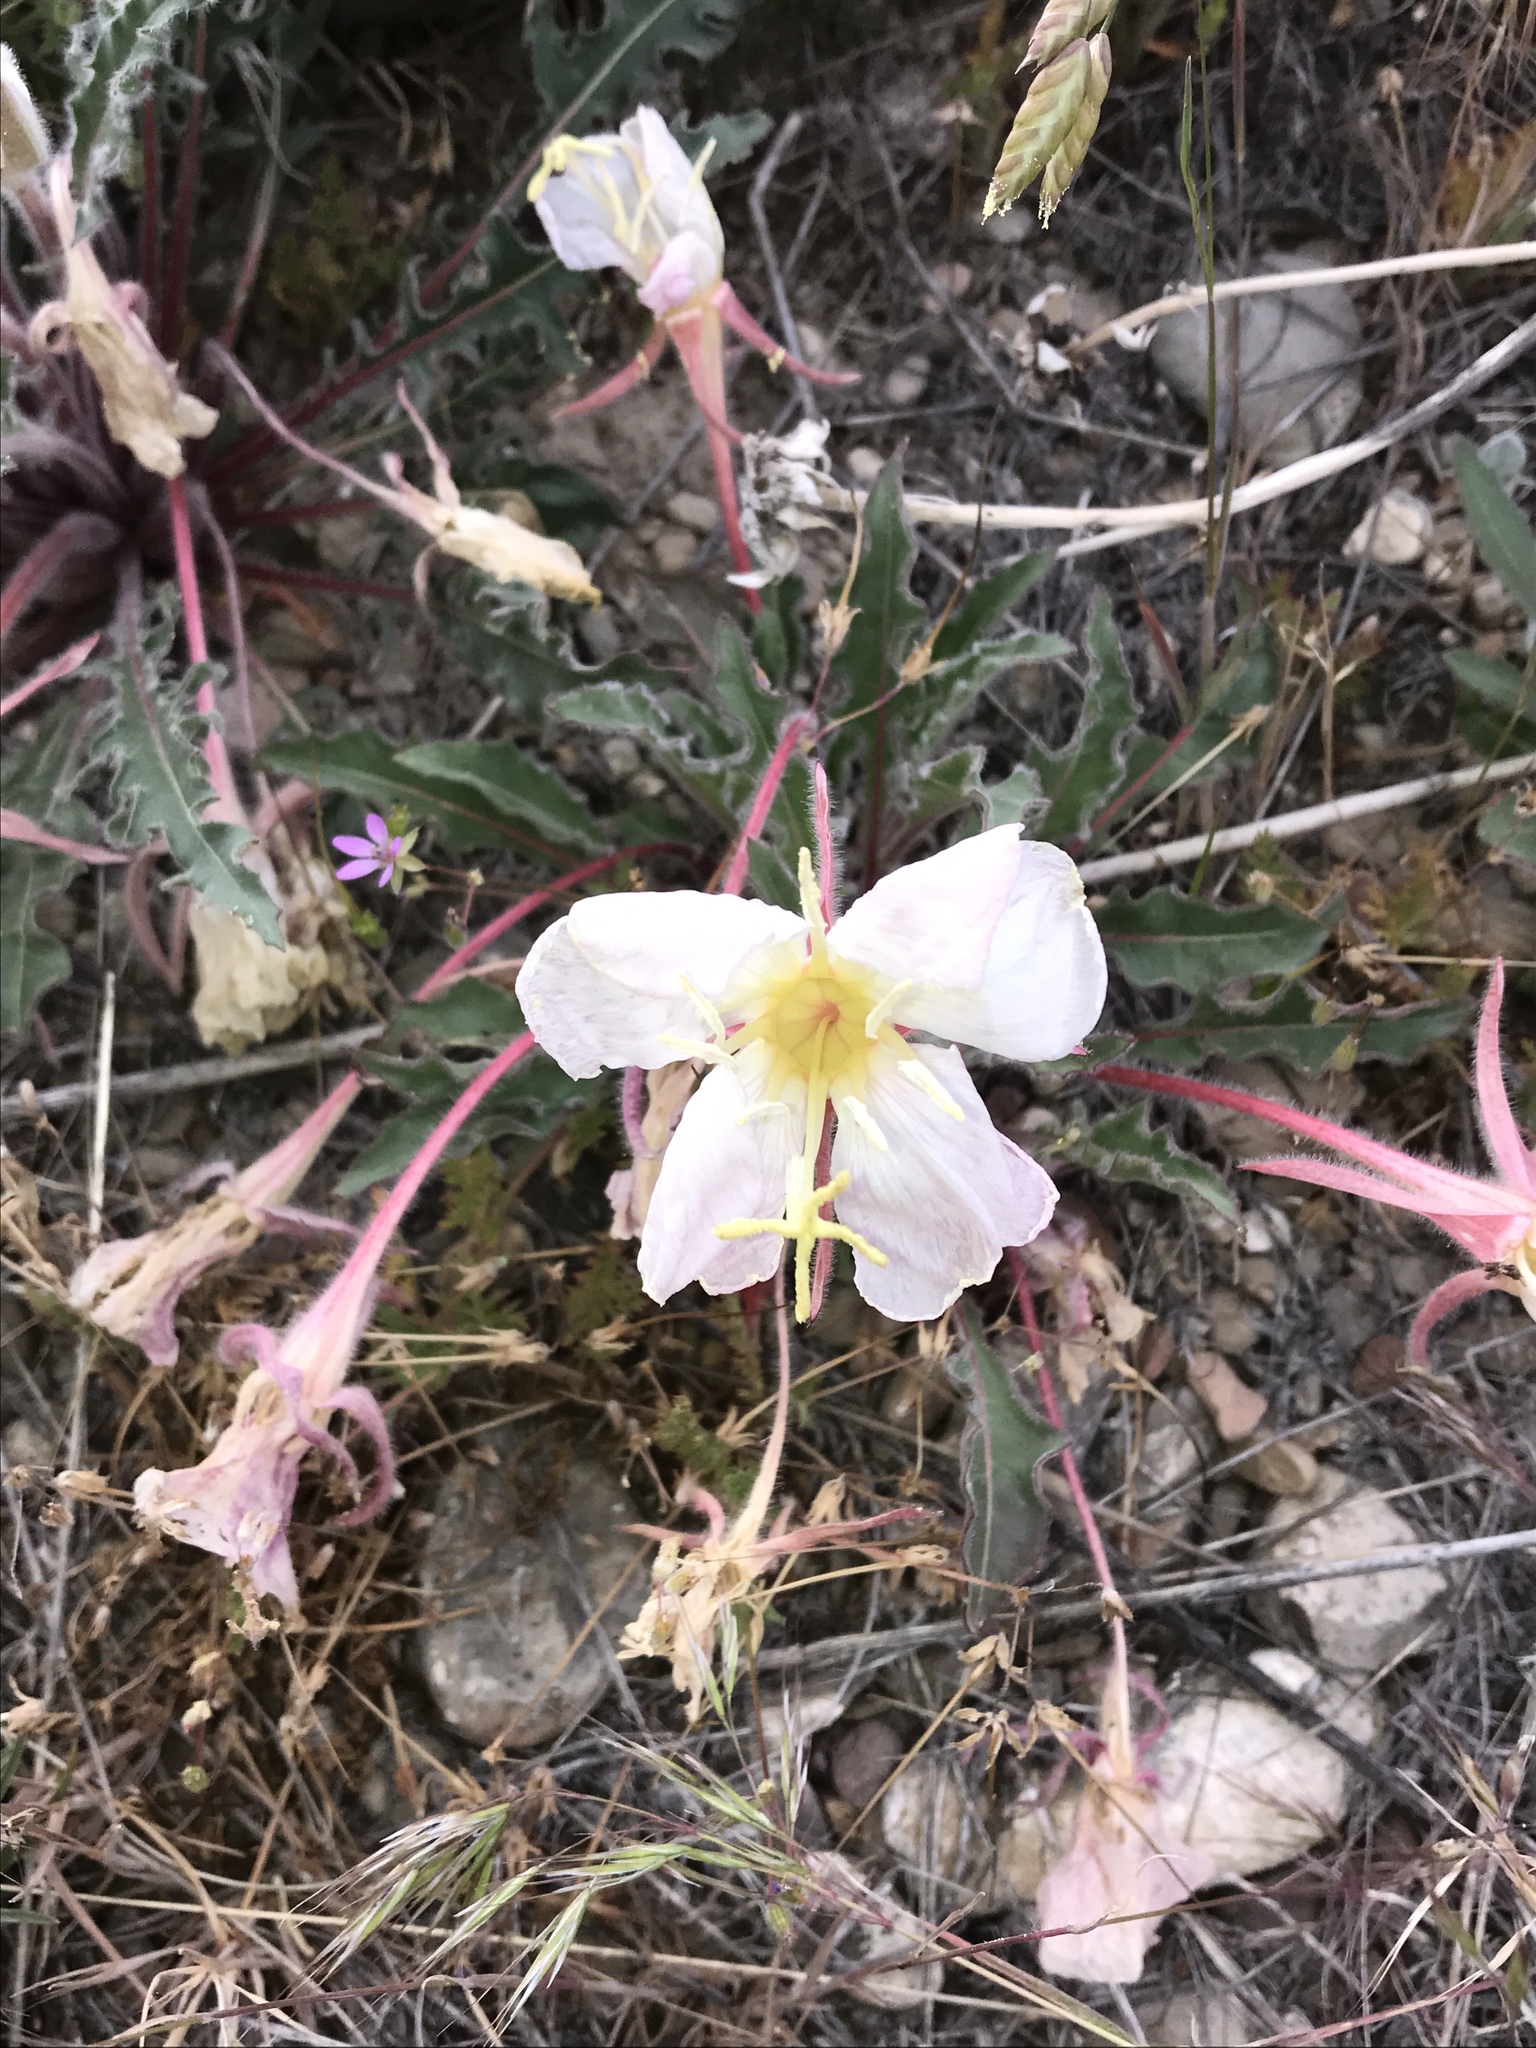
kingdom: Plantae
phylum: Tracheophyta
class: Magnoliopsida
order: Myrtales
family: Onagraceae
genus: Oenothera
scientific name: Oenothera cespitosa
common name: Tufted evening-primrose
